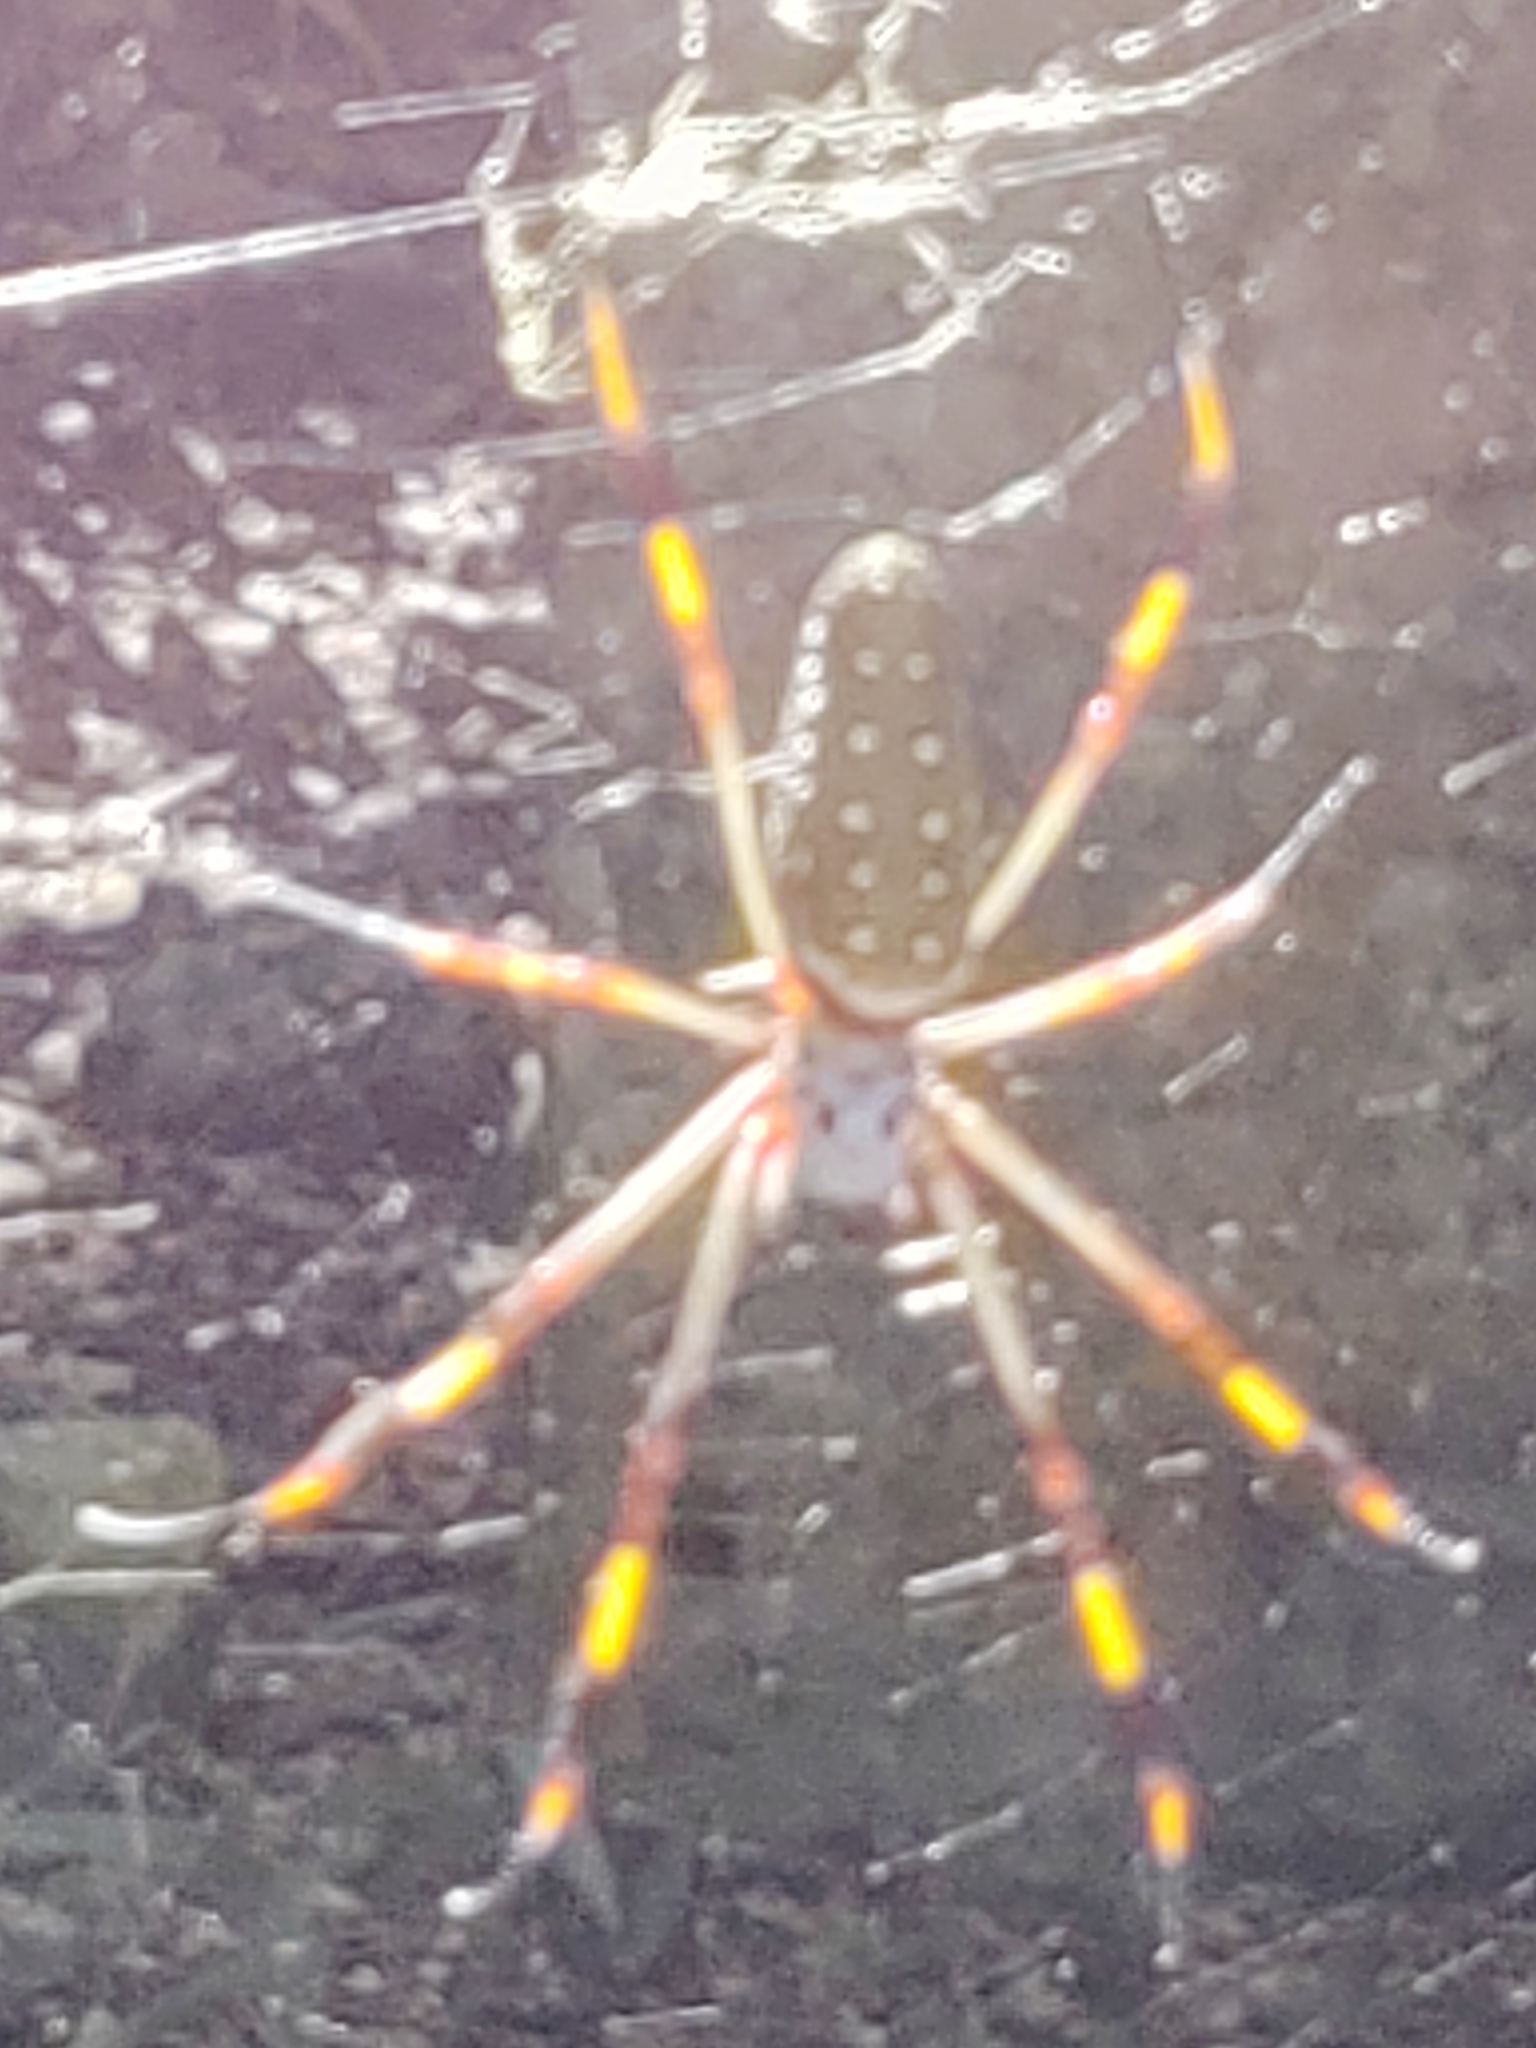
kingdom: Animalia
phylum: Arthropoda
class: Arachnida
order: Araneae
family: Araneidae
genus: Trichonephila
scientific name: Trichonephila clavipes
